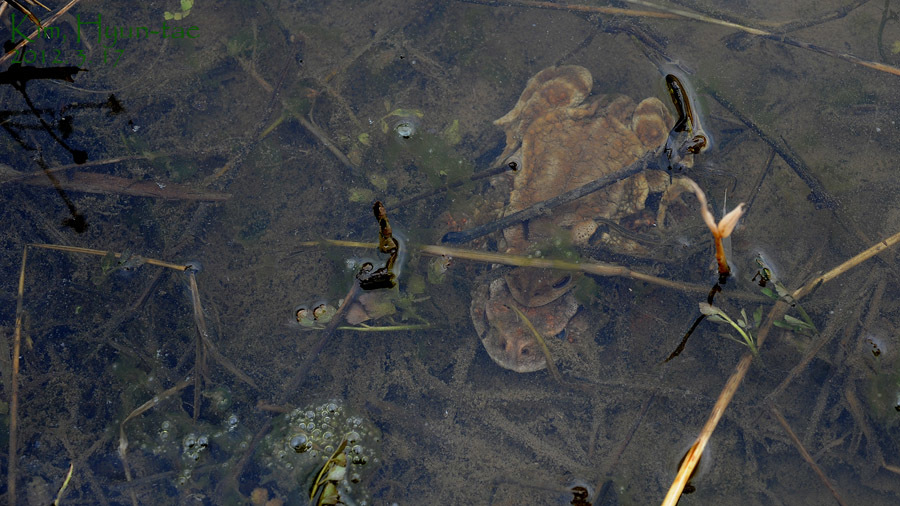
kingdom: Animalia
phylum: Chordata
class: Amphibia
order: Anura
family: Bufonidae
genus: Bufo
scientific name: Bufo gargarizans
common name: Asiatic toad
